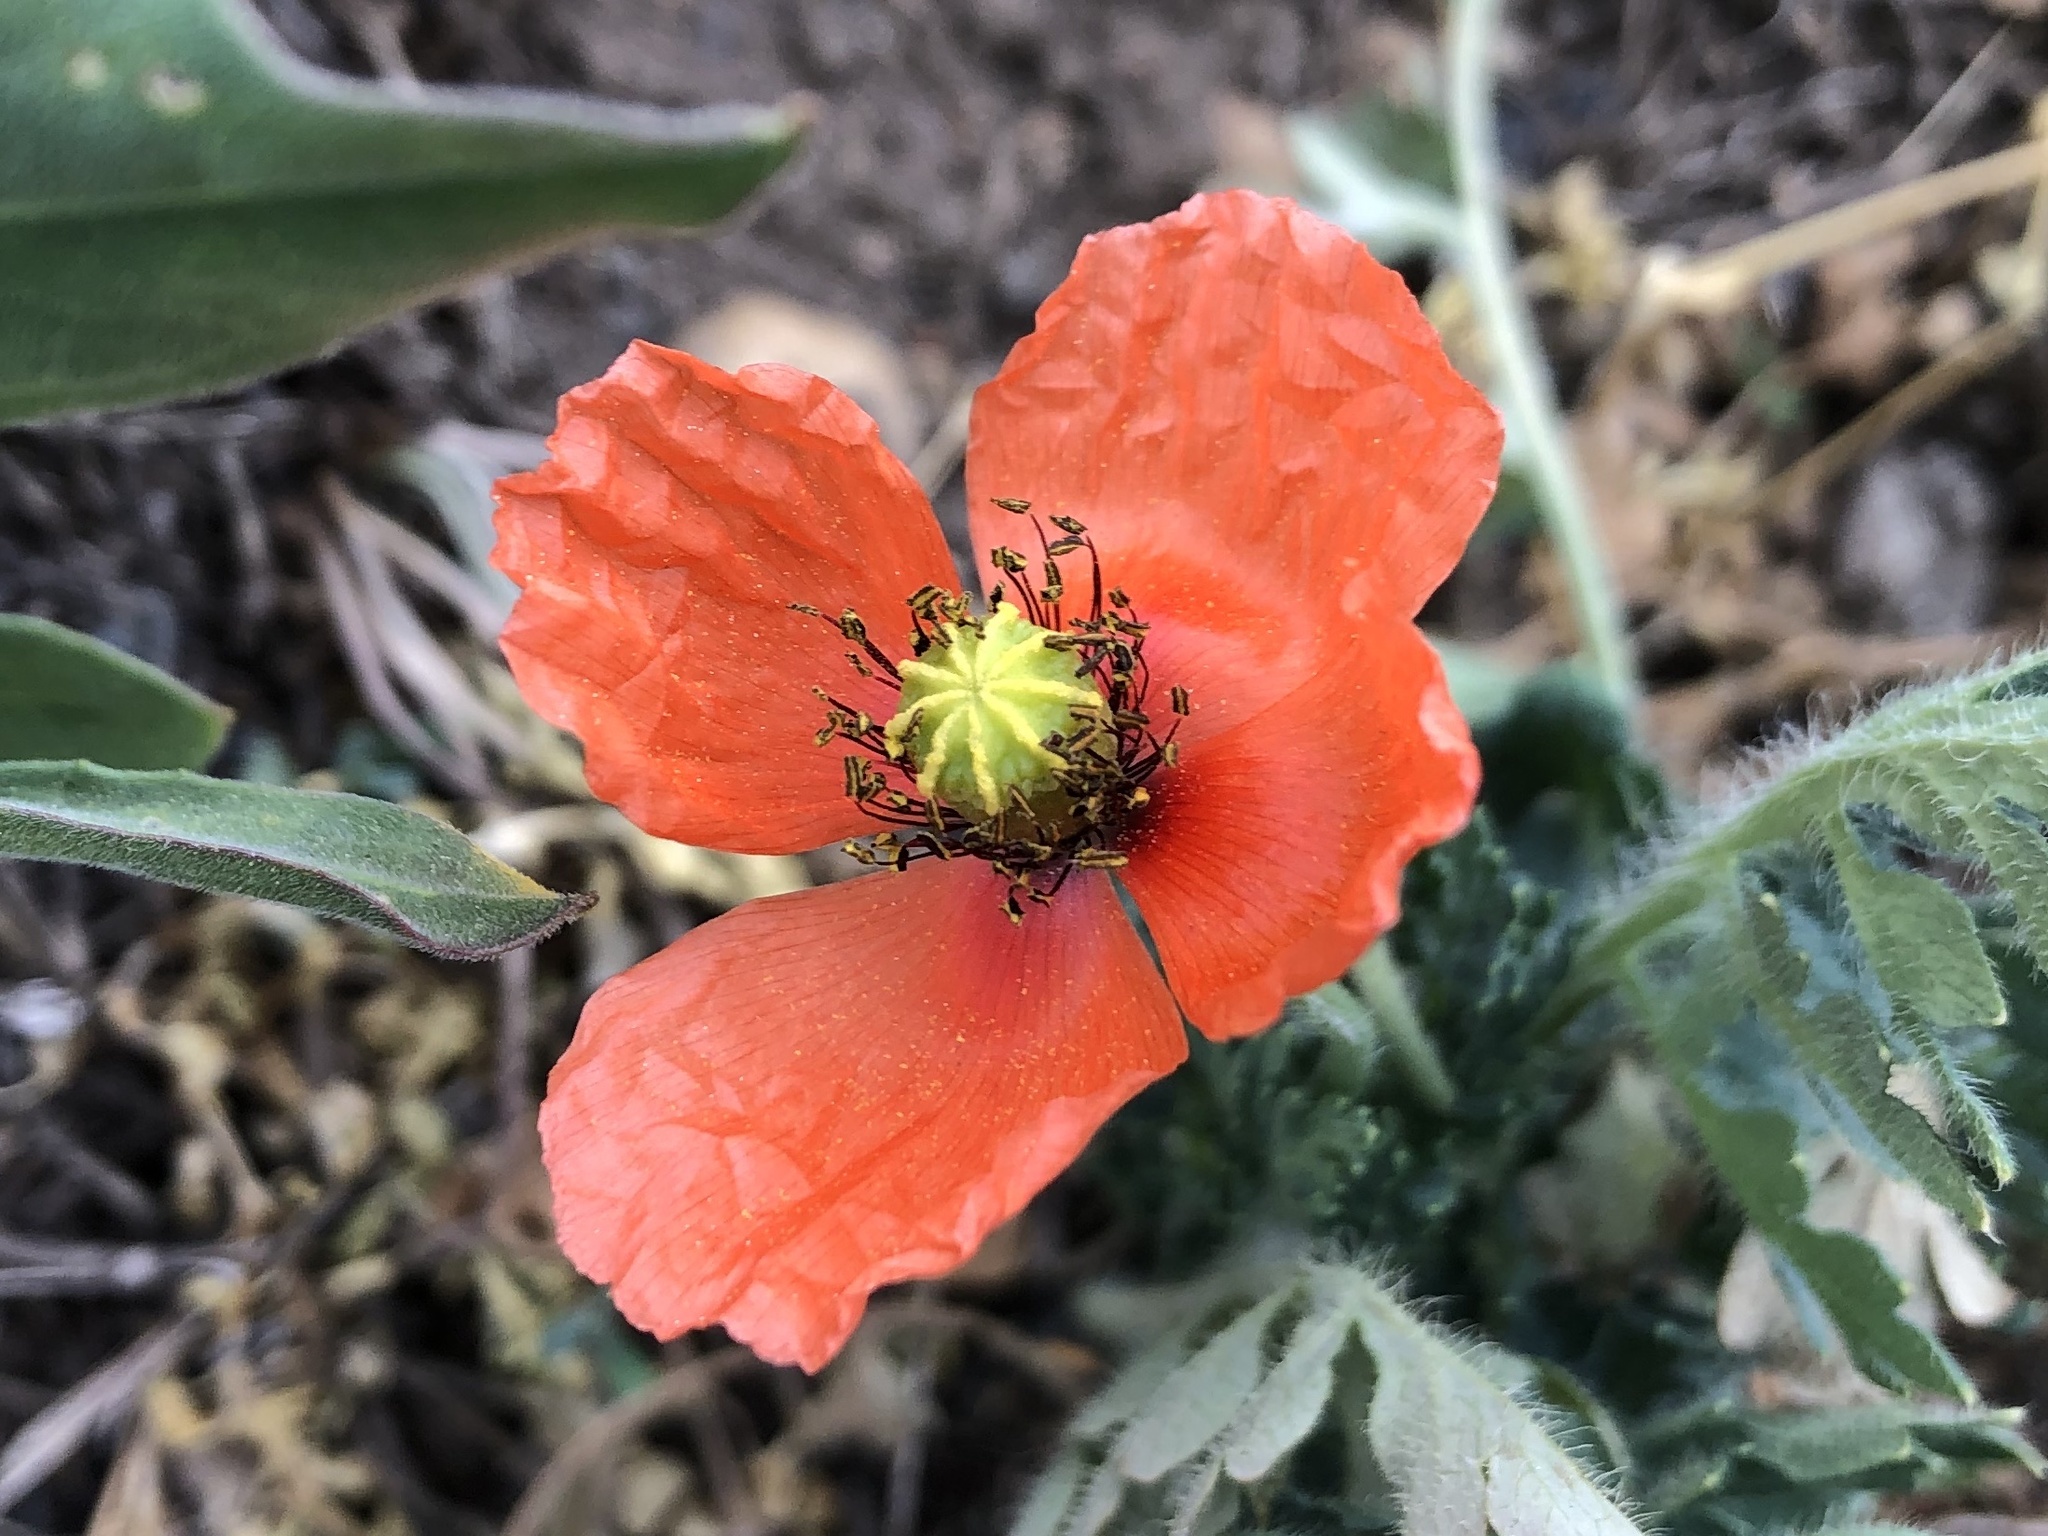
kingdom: Plantae
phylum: Tracheophyta
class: Magnoliopsida
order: Ranunculales
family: Papaveraceae
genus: Papaver
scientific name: Papaver dubium
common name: Long-headed poppy
